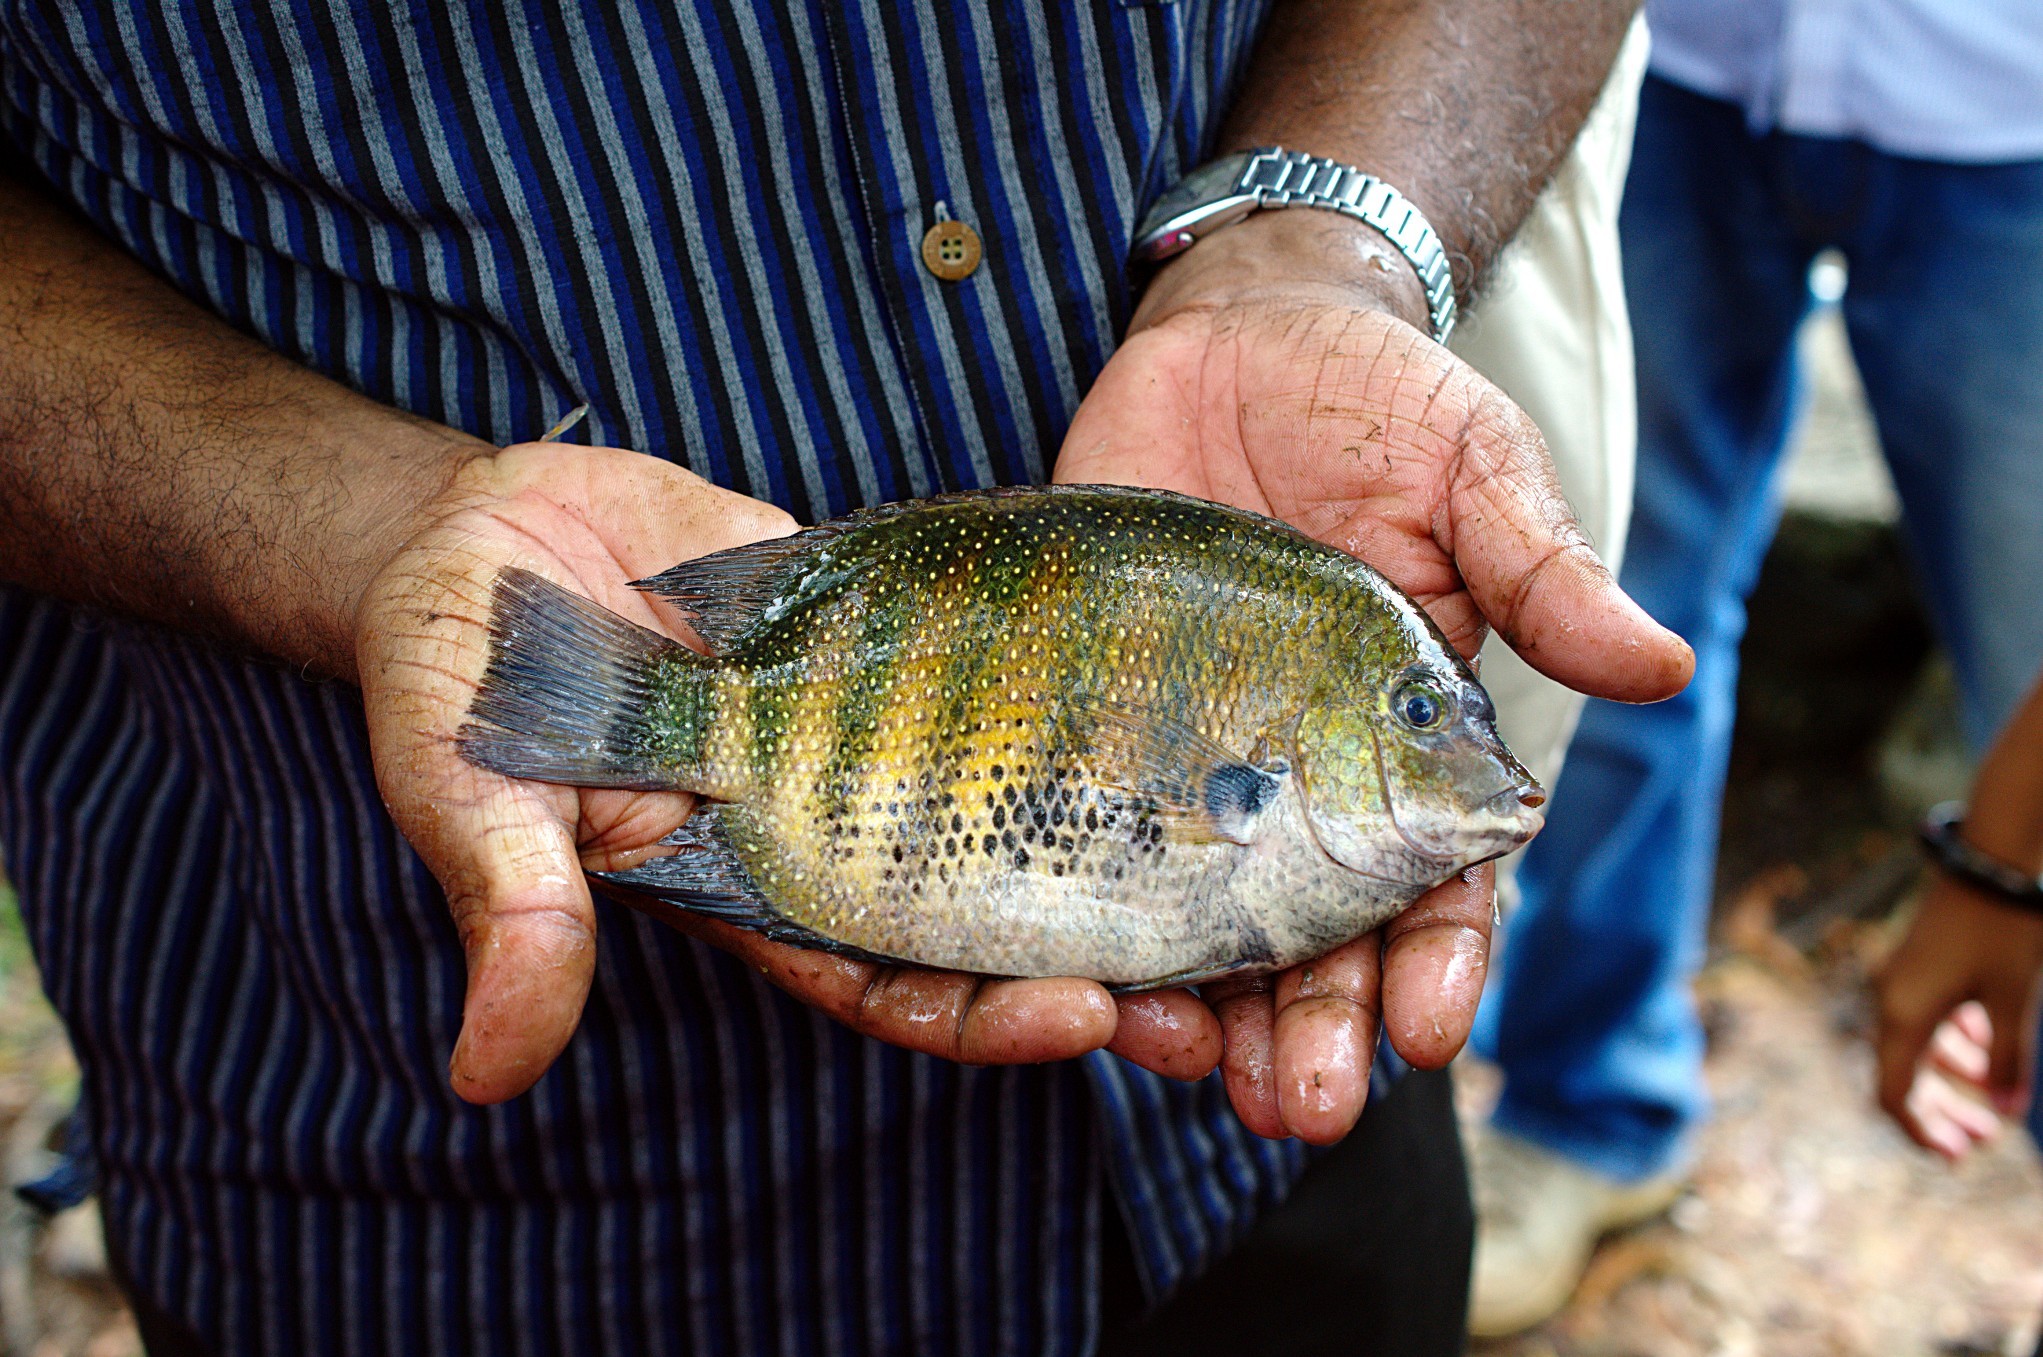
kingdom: Animalia
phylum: Chordata
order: Perciformes
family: Cichlidae
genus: Etroplus
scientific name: Etroplus suratensis
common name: Green chromide
